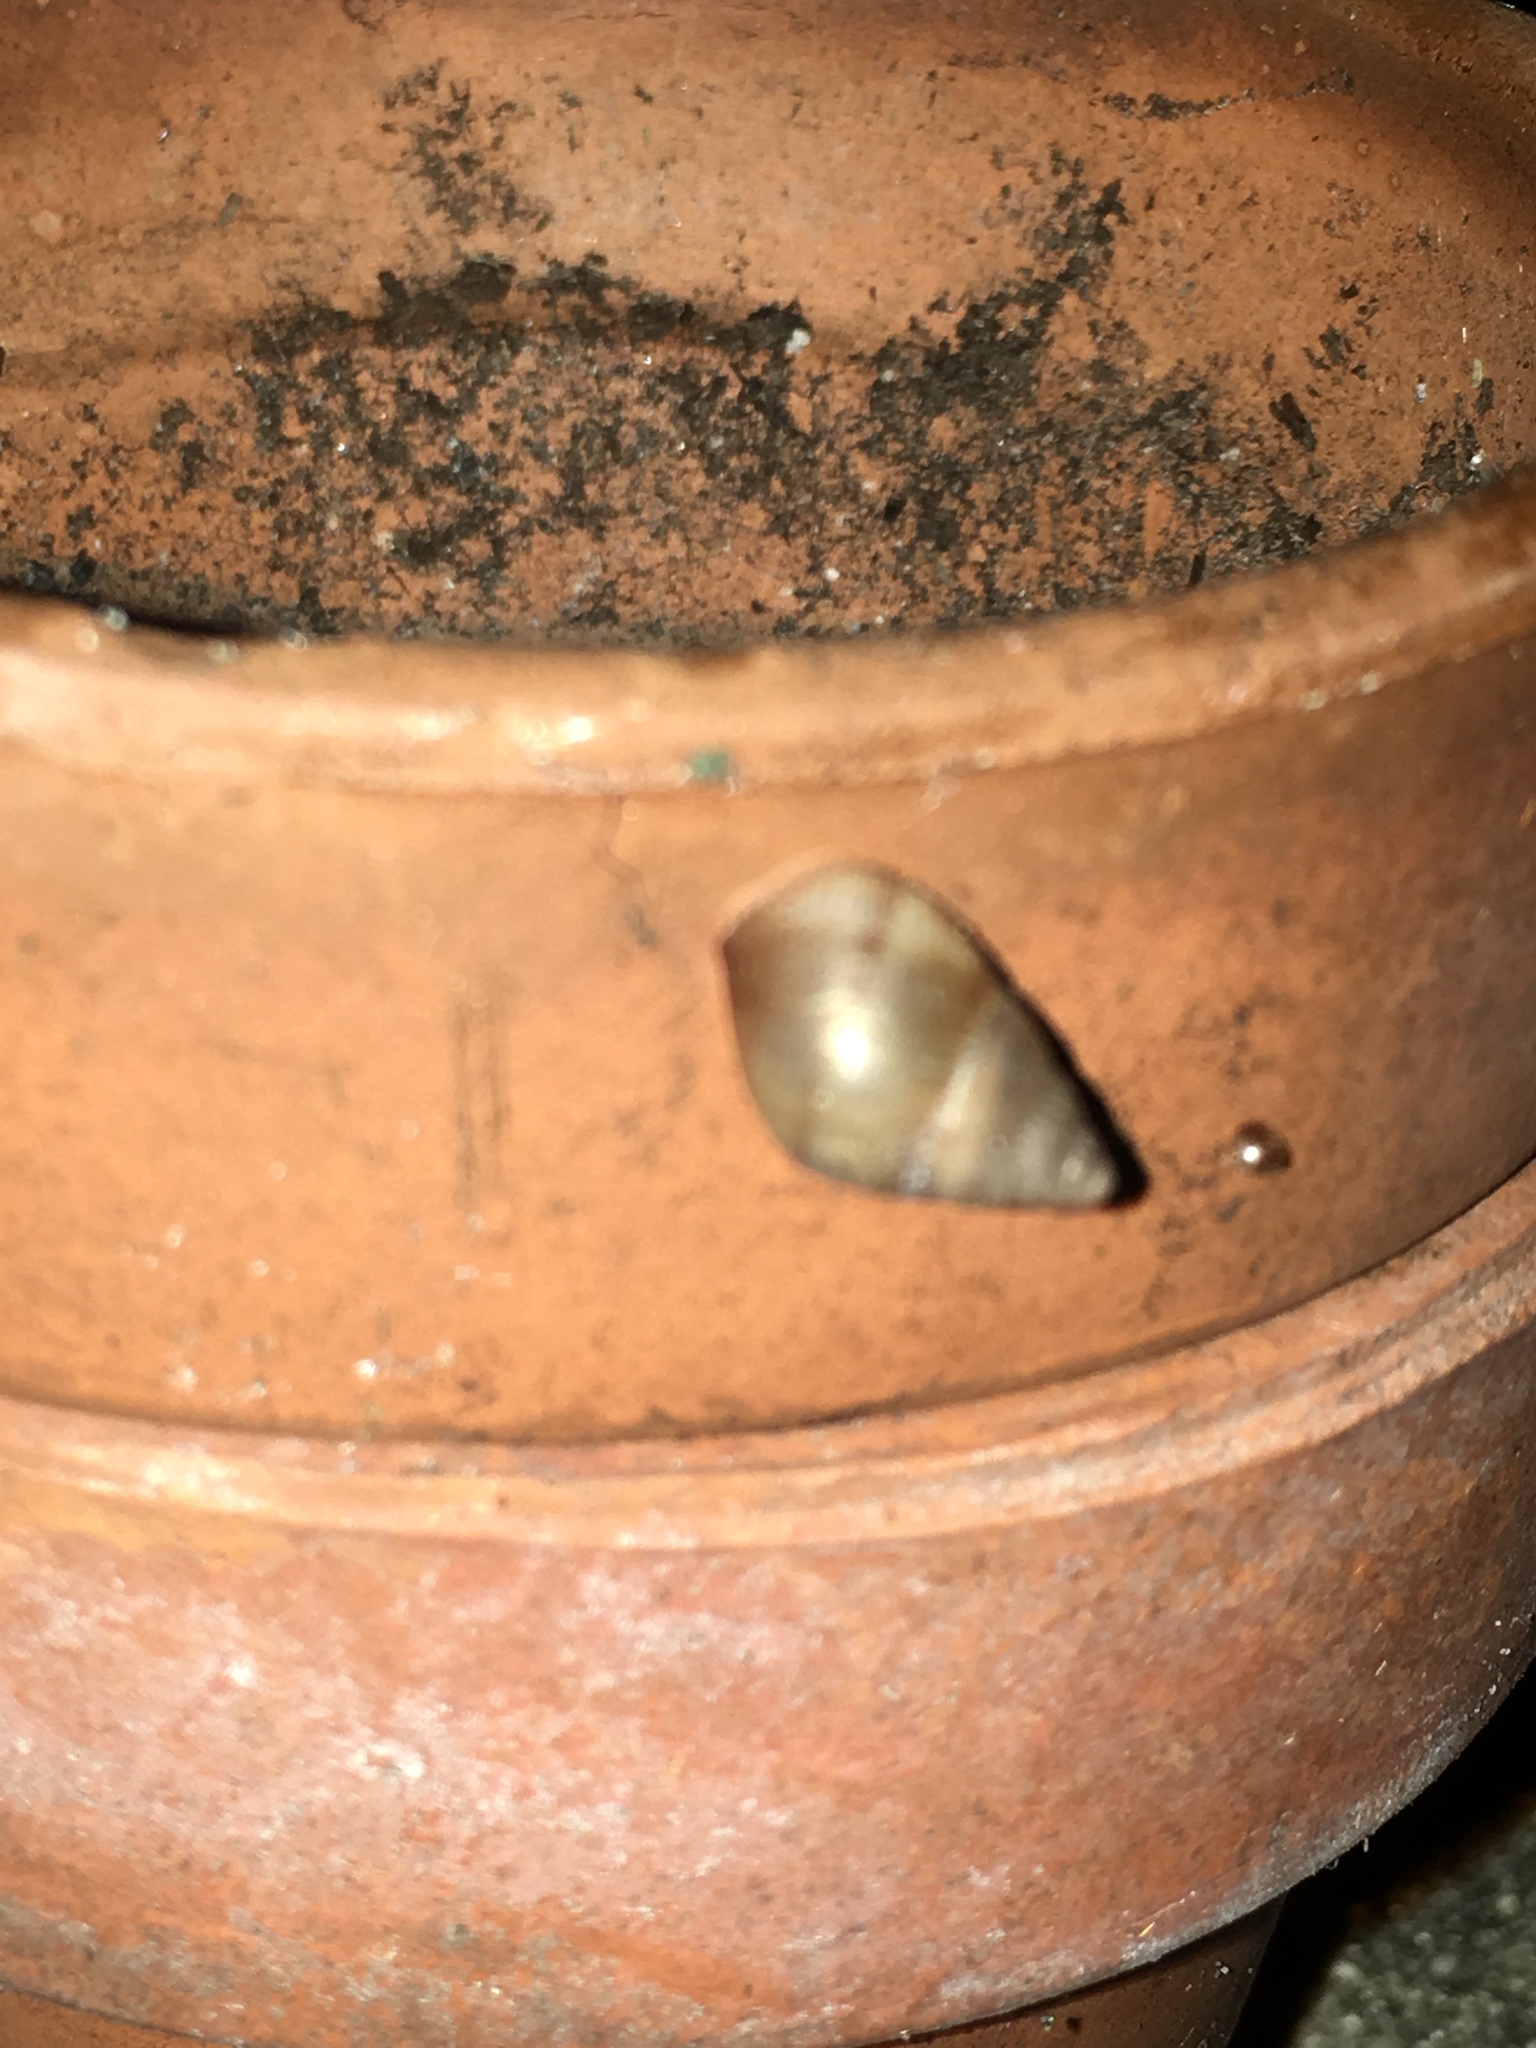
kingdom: Animalia
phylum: Mollusca
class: Gastropoda
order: Stylommatophora
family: Bulimulidae
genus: Bulimulus
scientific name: Bulimulus guadalupensis
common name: West indian bulimulus
